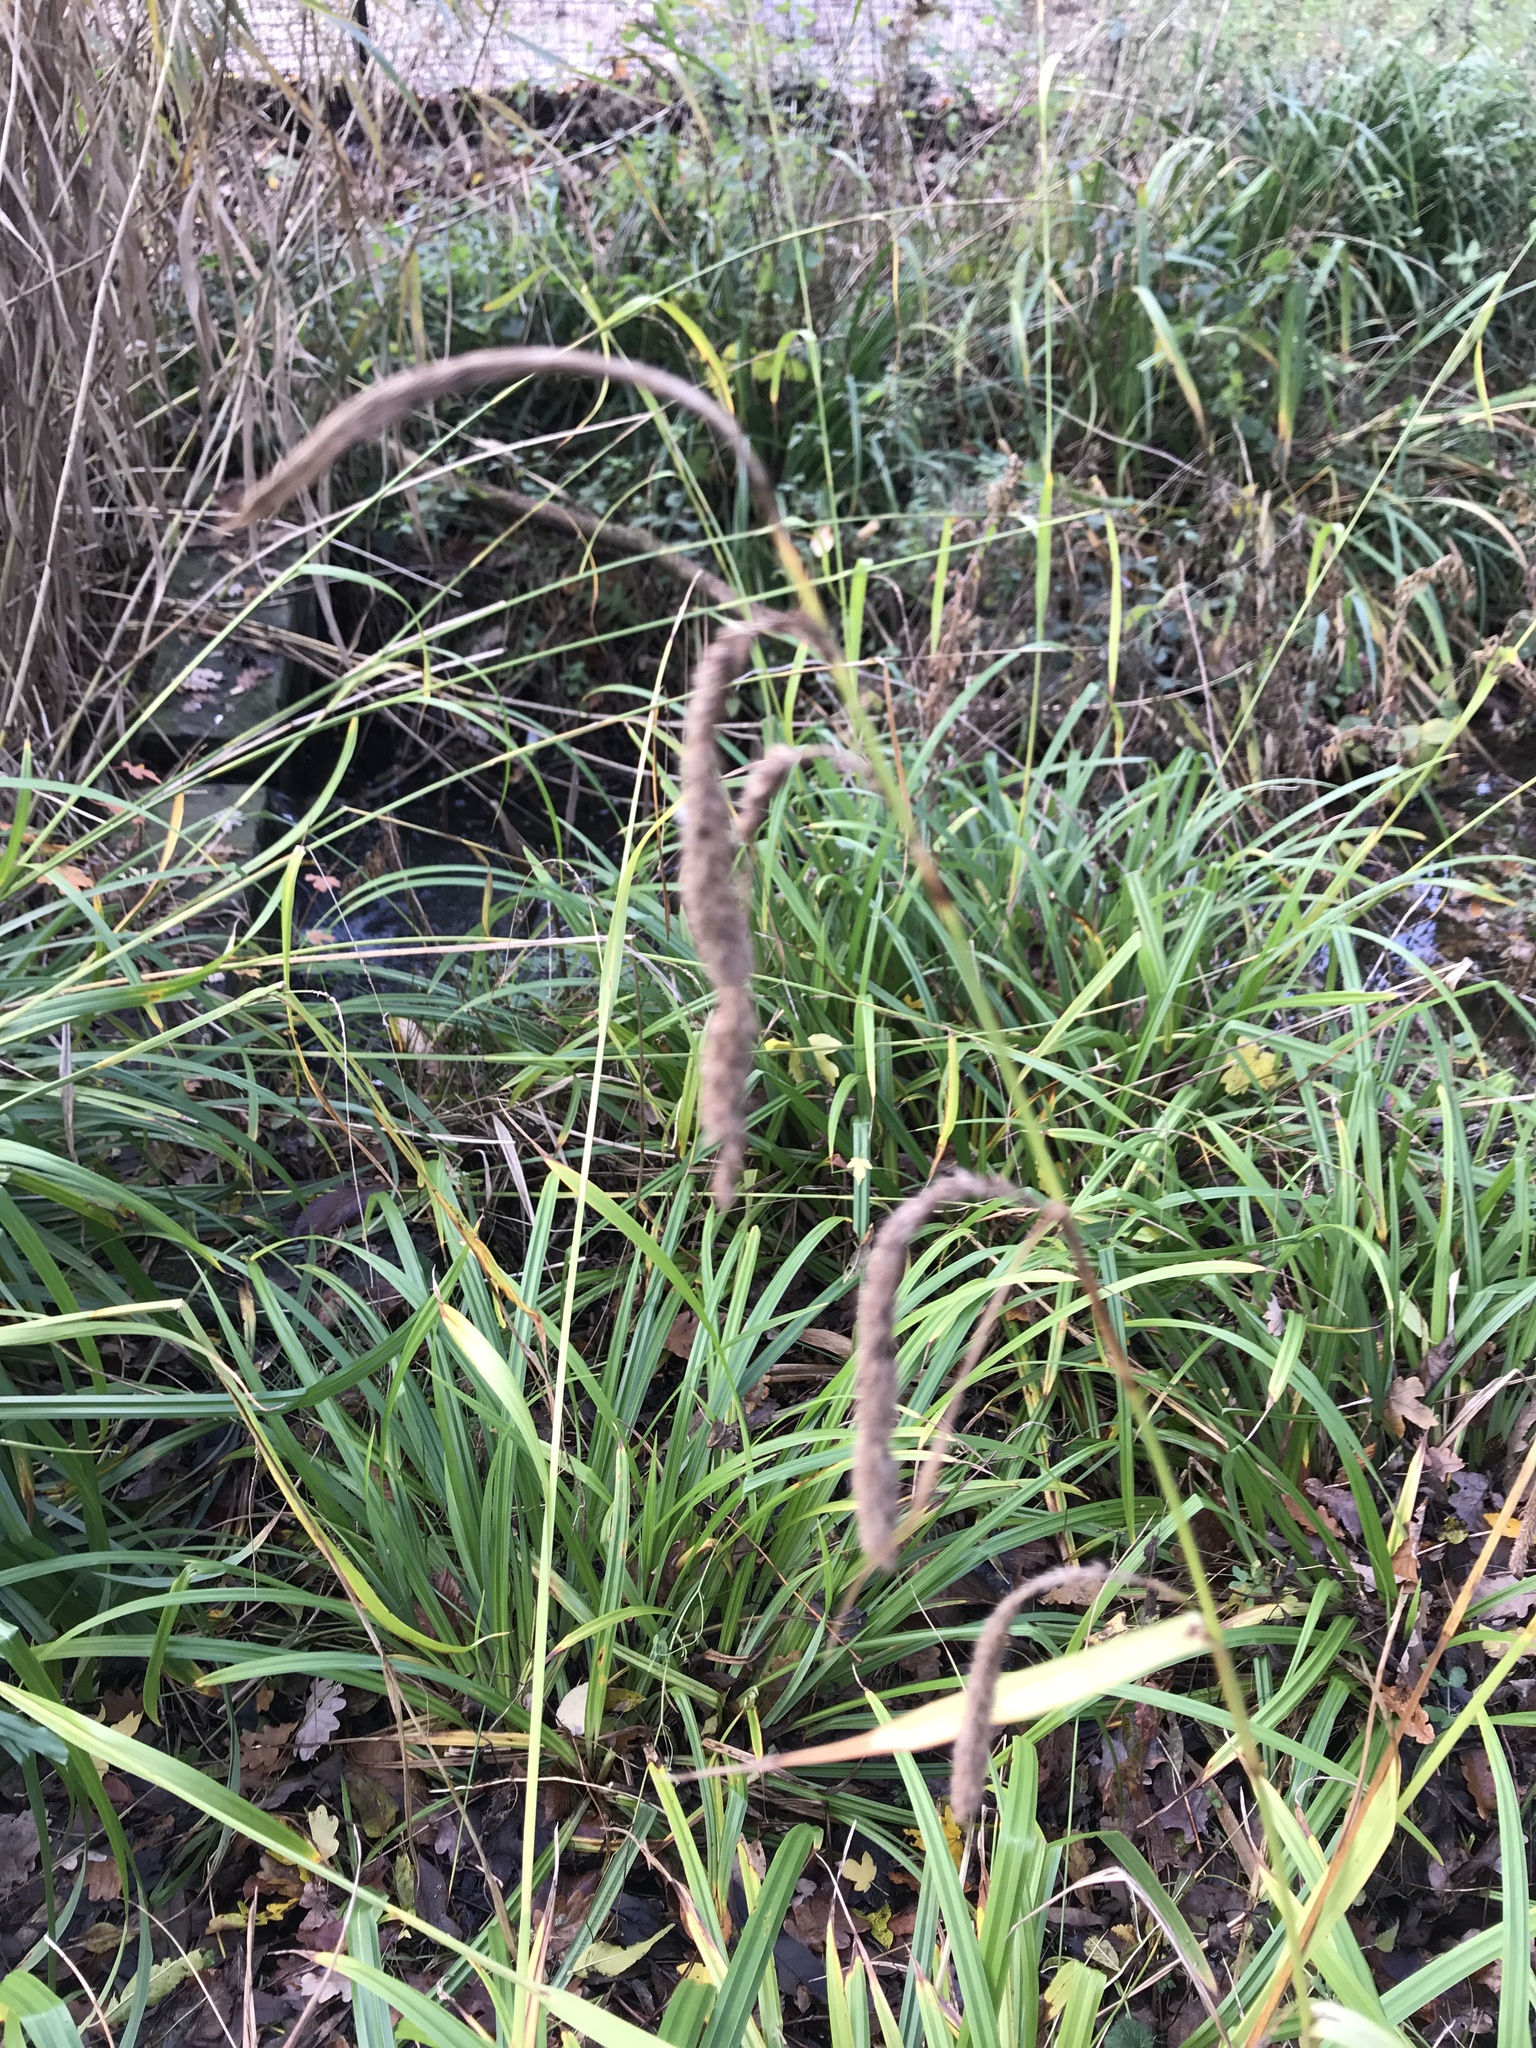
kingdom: Plantae
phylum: Tracheophyta
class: Liliopsida
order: Poales
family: Cyperaceae
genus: Carex
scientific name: Carex pendula
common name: Pendulous sedge
